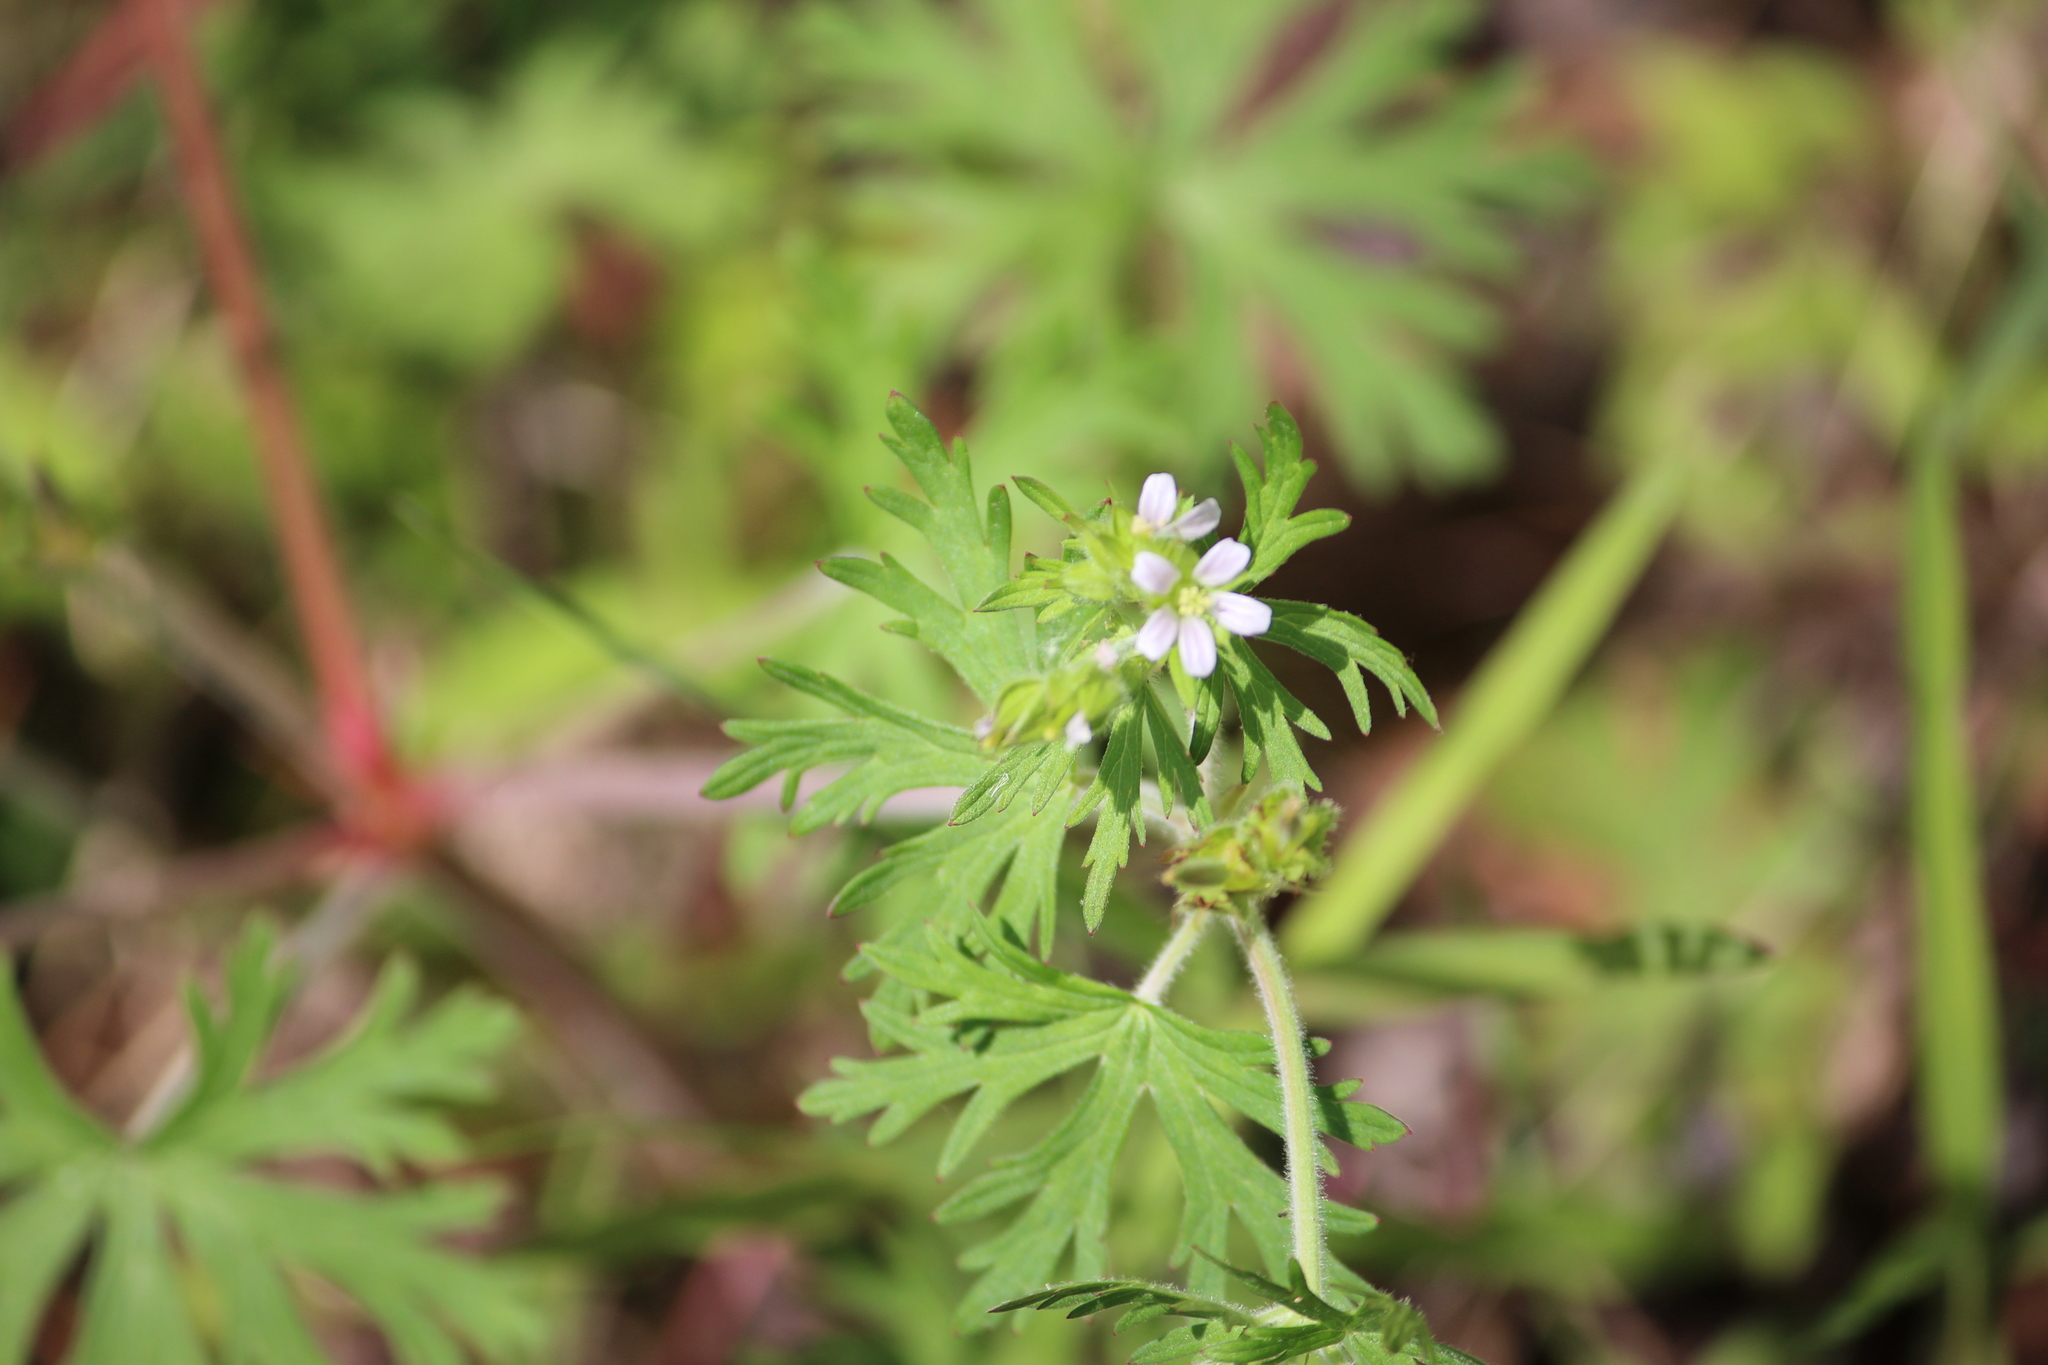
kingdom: Plantae
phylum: Tracheophyta
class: Magnoliopsida
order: Geraniales
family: Geraniaceae
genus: Geranium
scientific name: Geranium carolinianum
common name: Carolina crane's-bill
